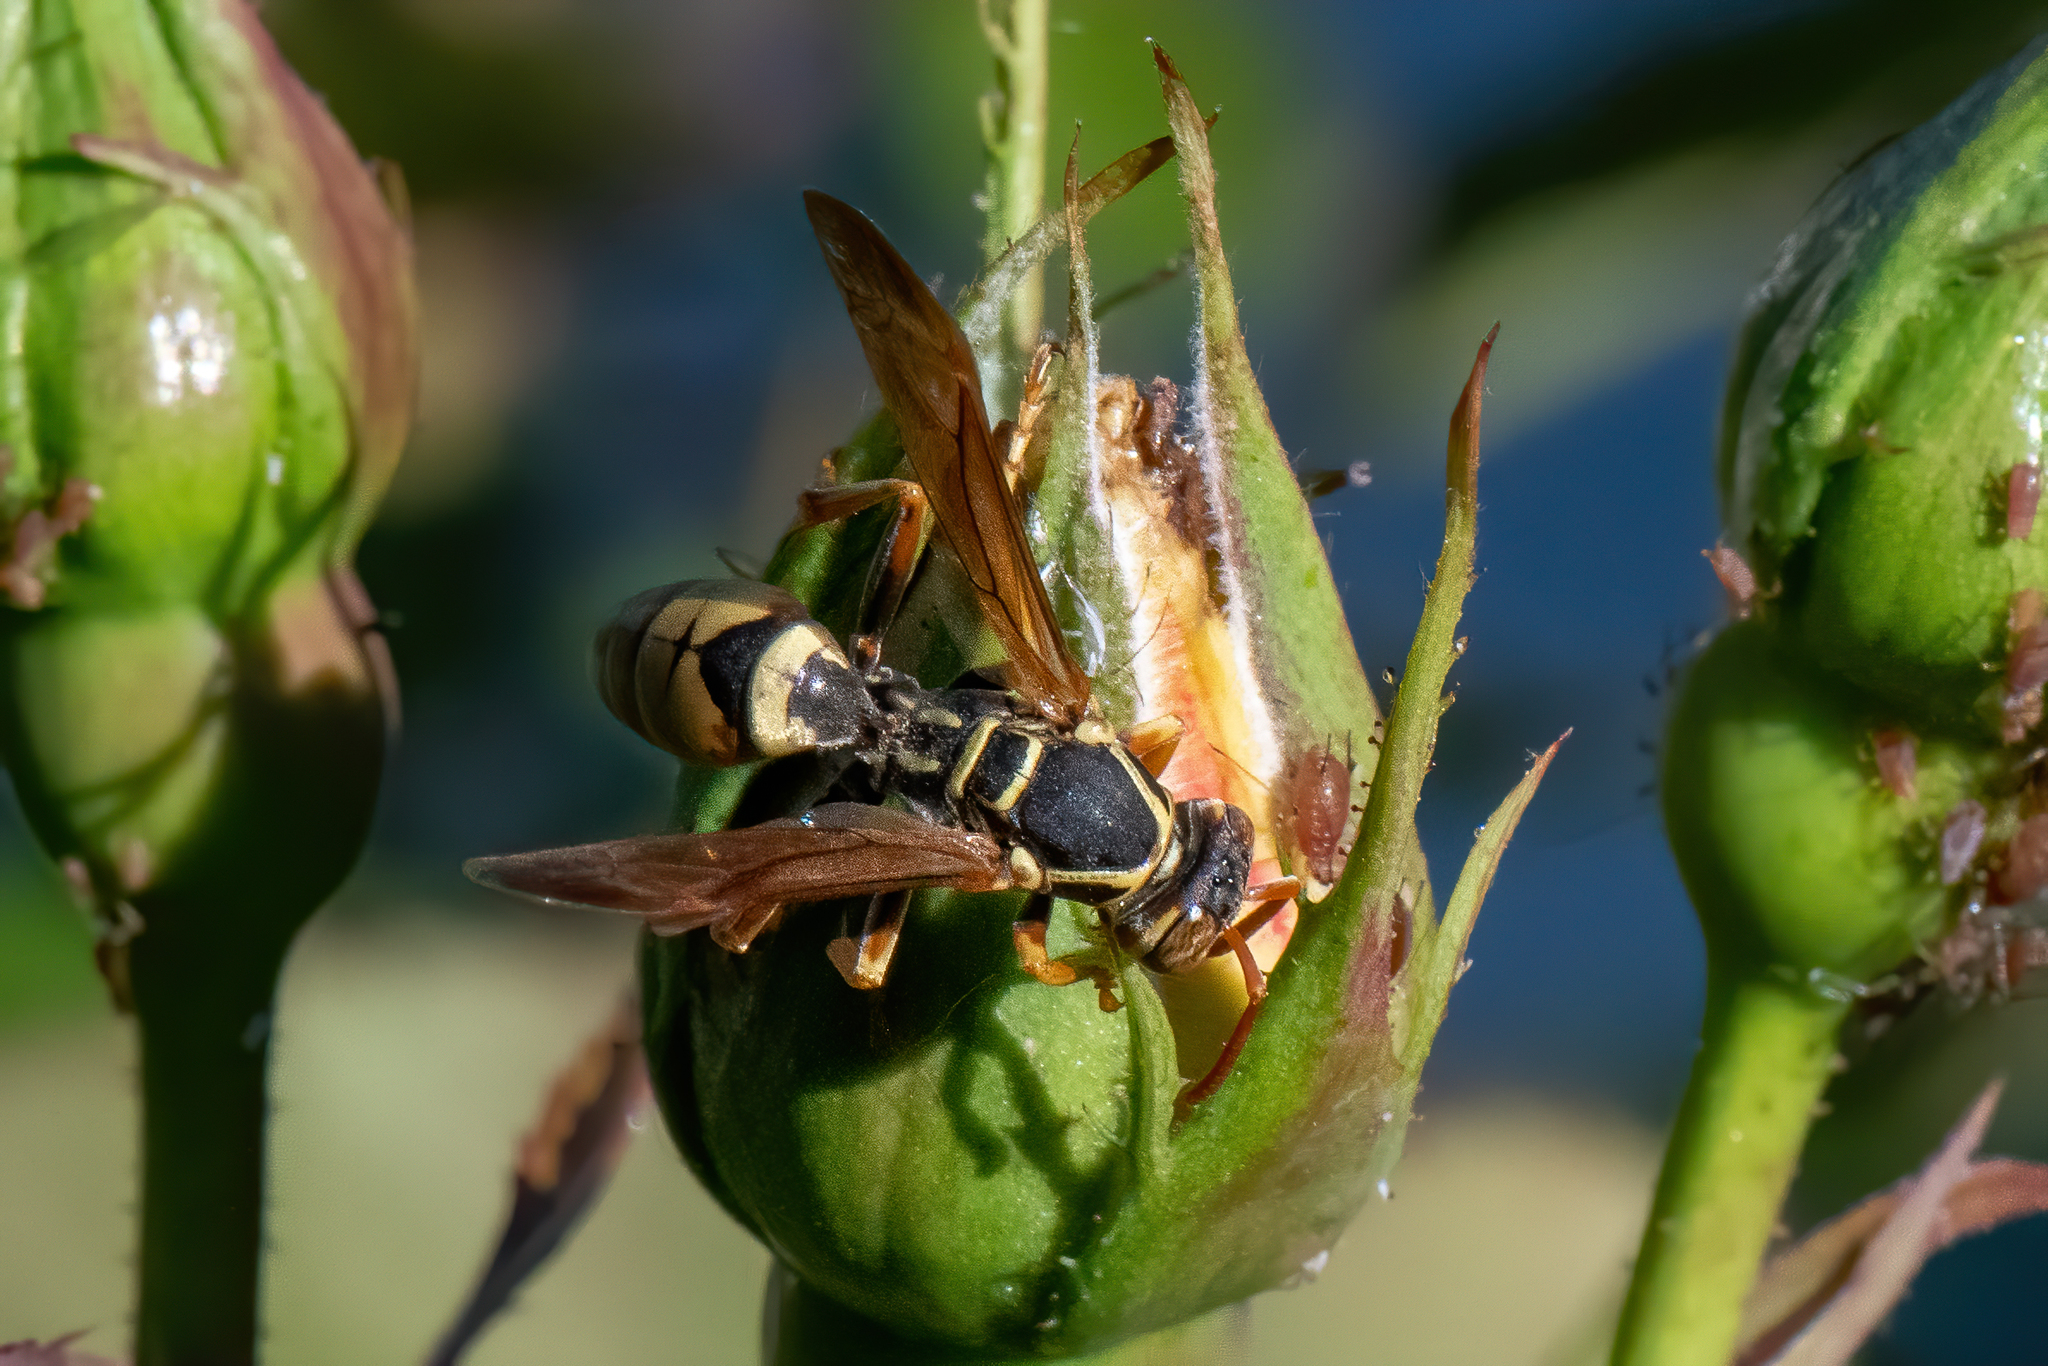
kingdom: Animalia
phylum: Arthropoda
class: Insecta
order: Hymenoptera
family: Eumenidae
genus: Polistes
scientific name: Polistes aurifer
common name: Paper wasp
